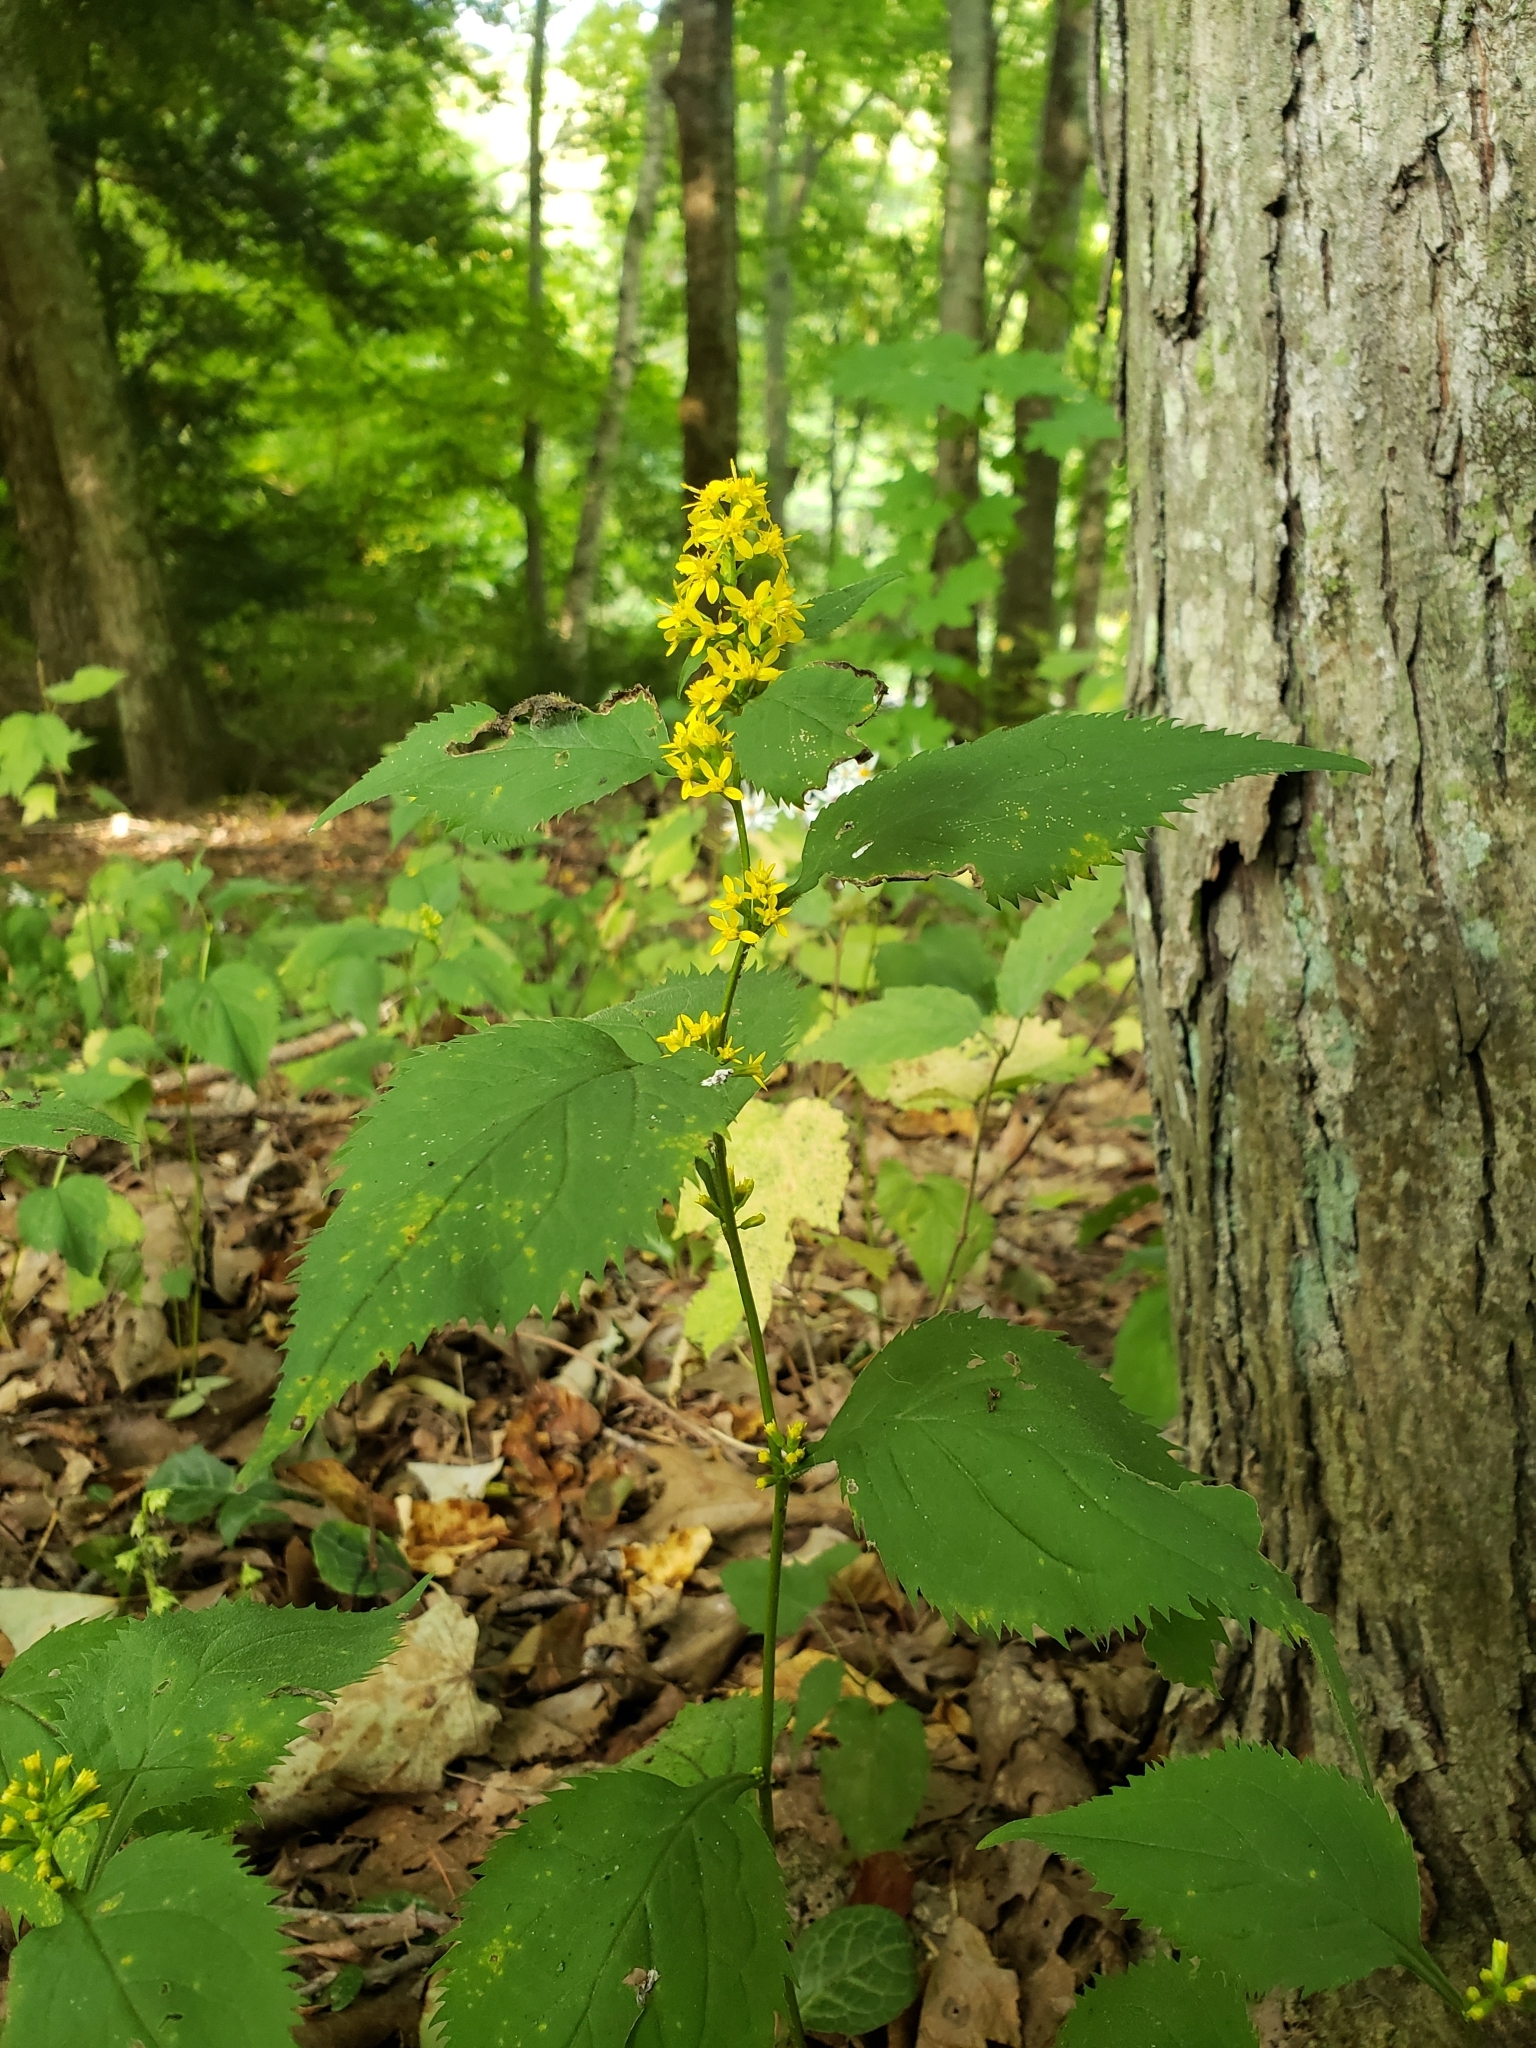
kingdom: Plantae
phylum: Tracheophyta
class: Magnoliopsida
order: Asterales
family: Asteraceae
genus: Solidago
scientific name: Solidago flexicaulis
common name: Zig-zag goldenrod
